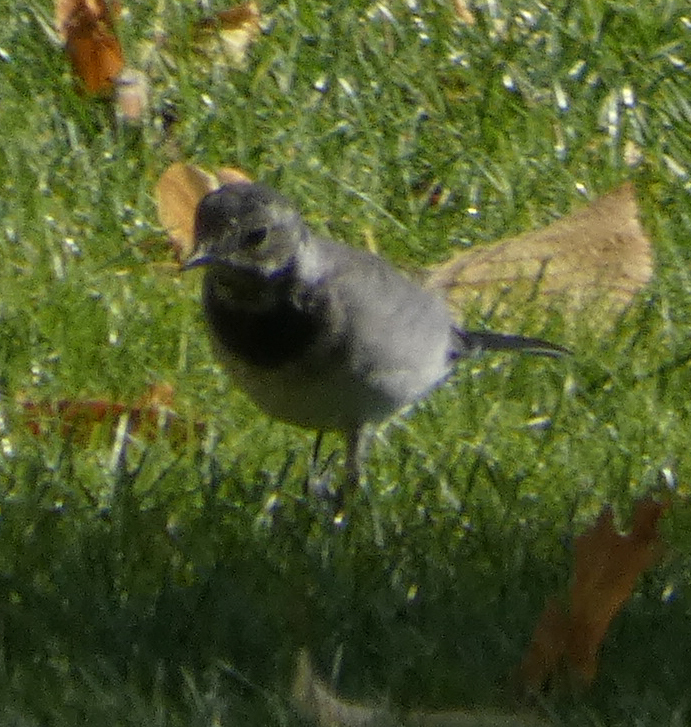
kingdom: Animalia
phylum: Chordata
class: Aves
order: Passeriformes
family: Motacillidae
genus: Motacilla
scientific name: Motacilla alba
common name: White wagtail
